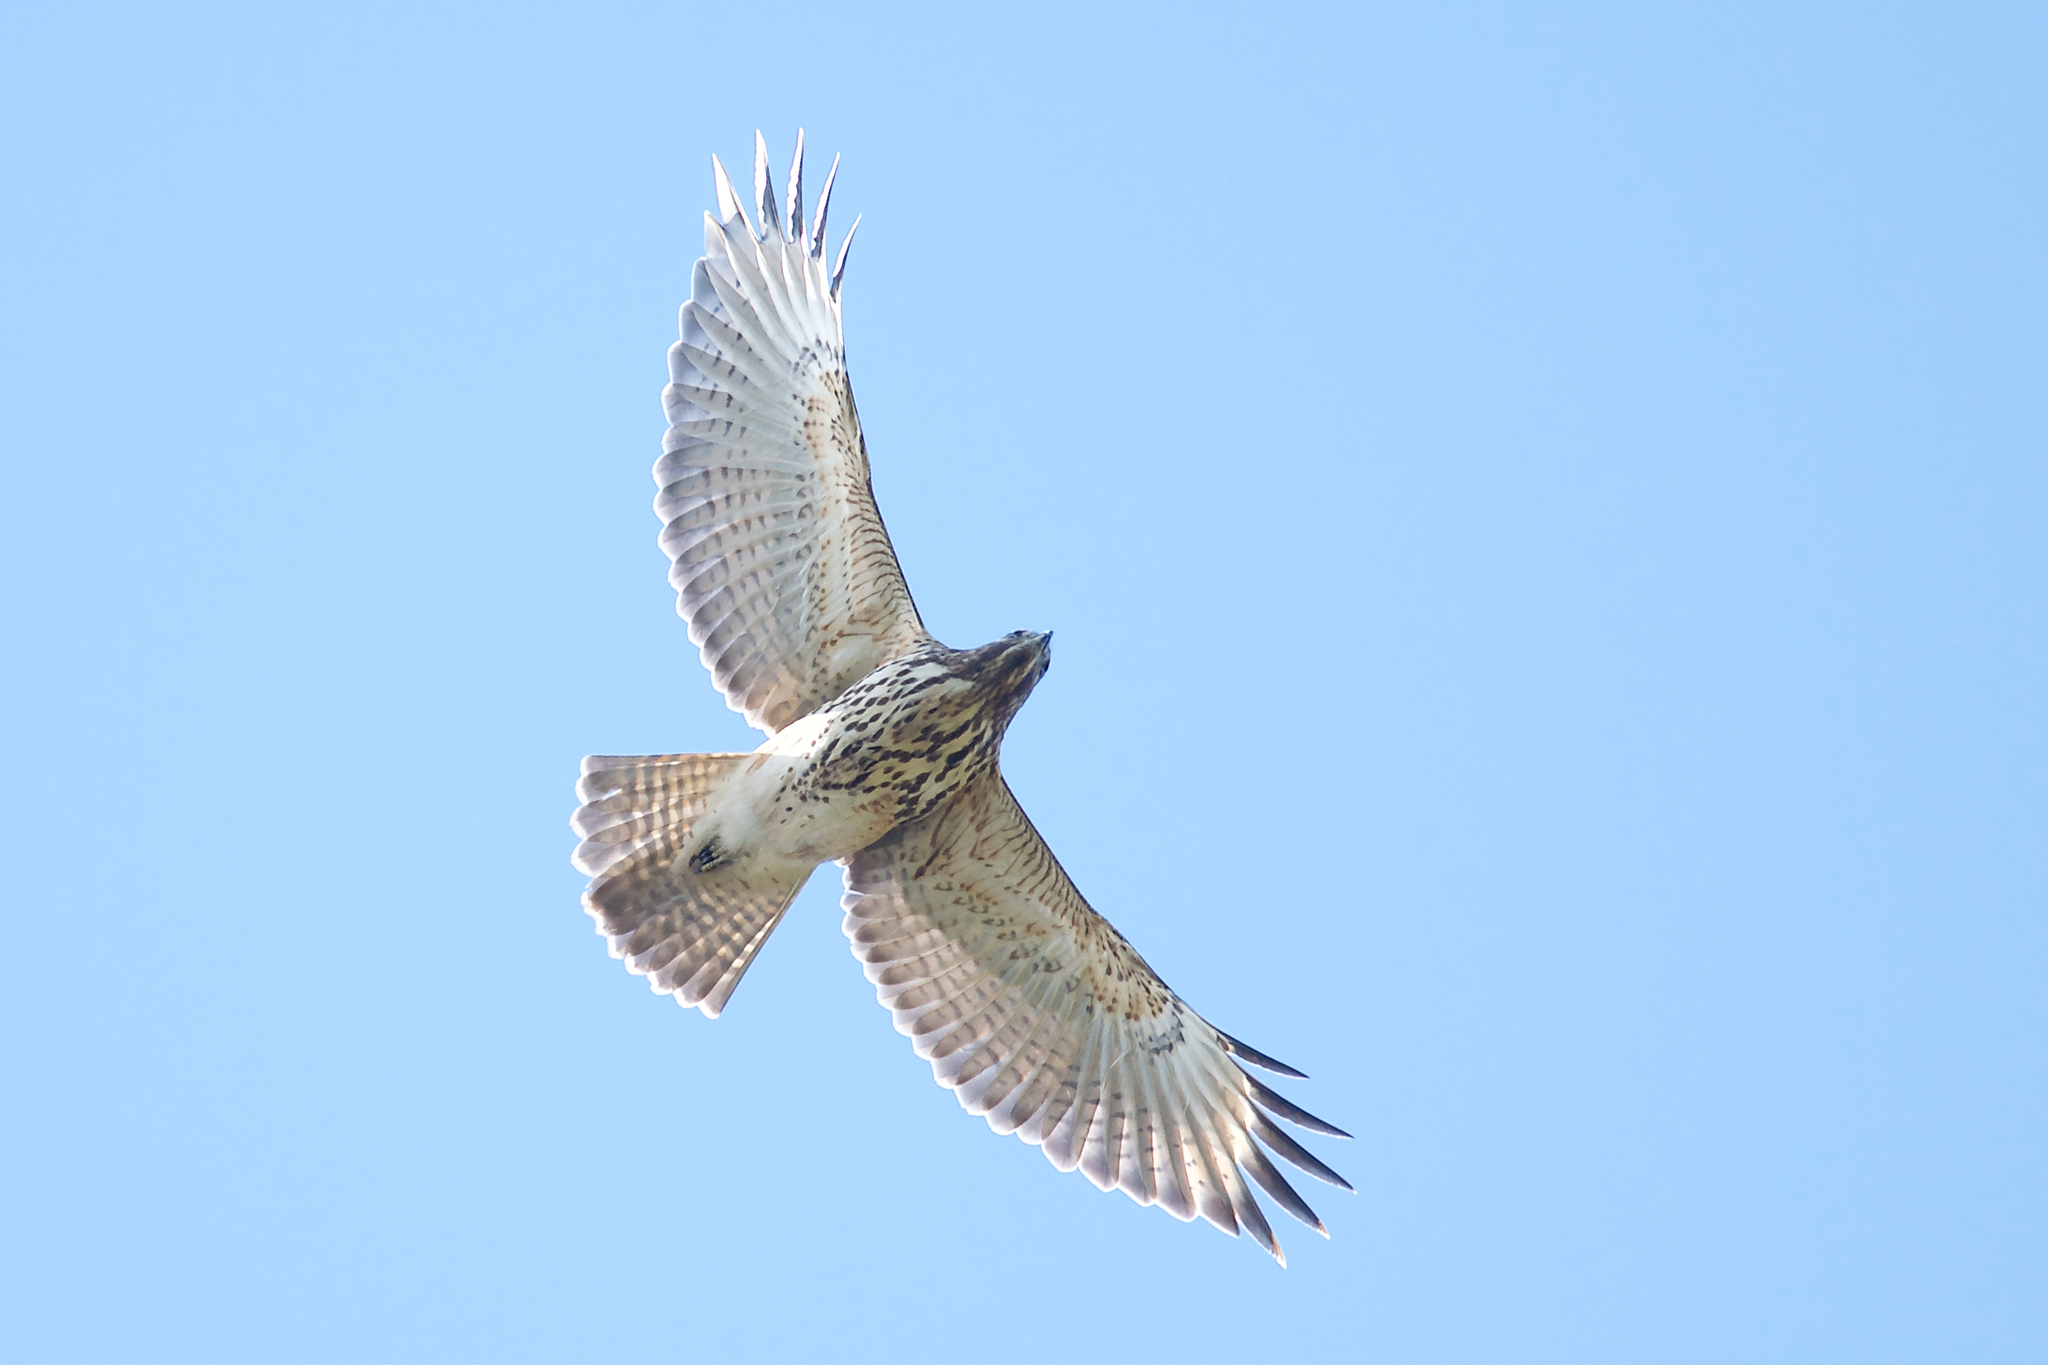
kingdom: Animalia
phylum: Chordata
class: Aves
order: Accipitriformes
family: Accipitridae
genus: Buteo
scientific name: Buteo lineatus
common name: Red-shouldered hawk
